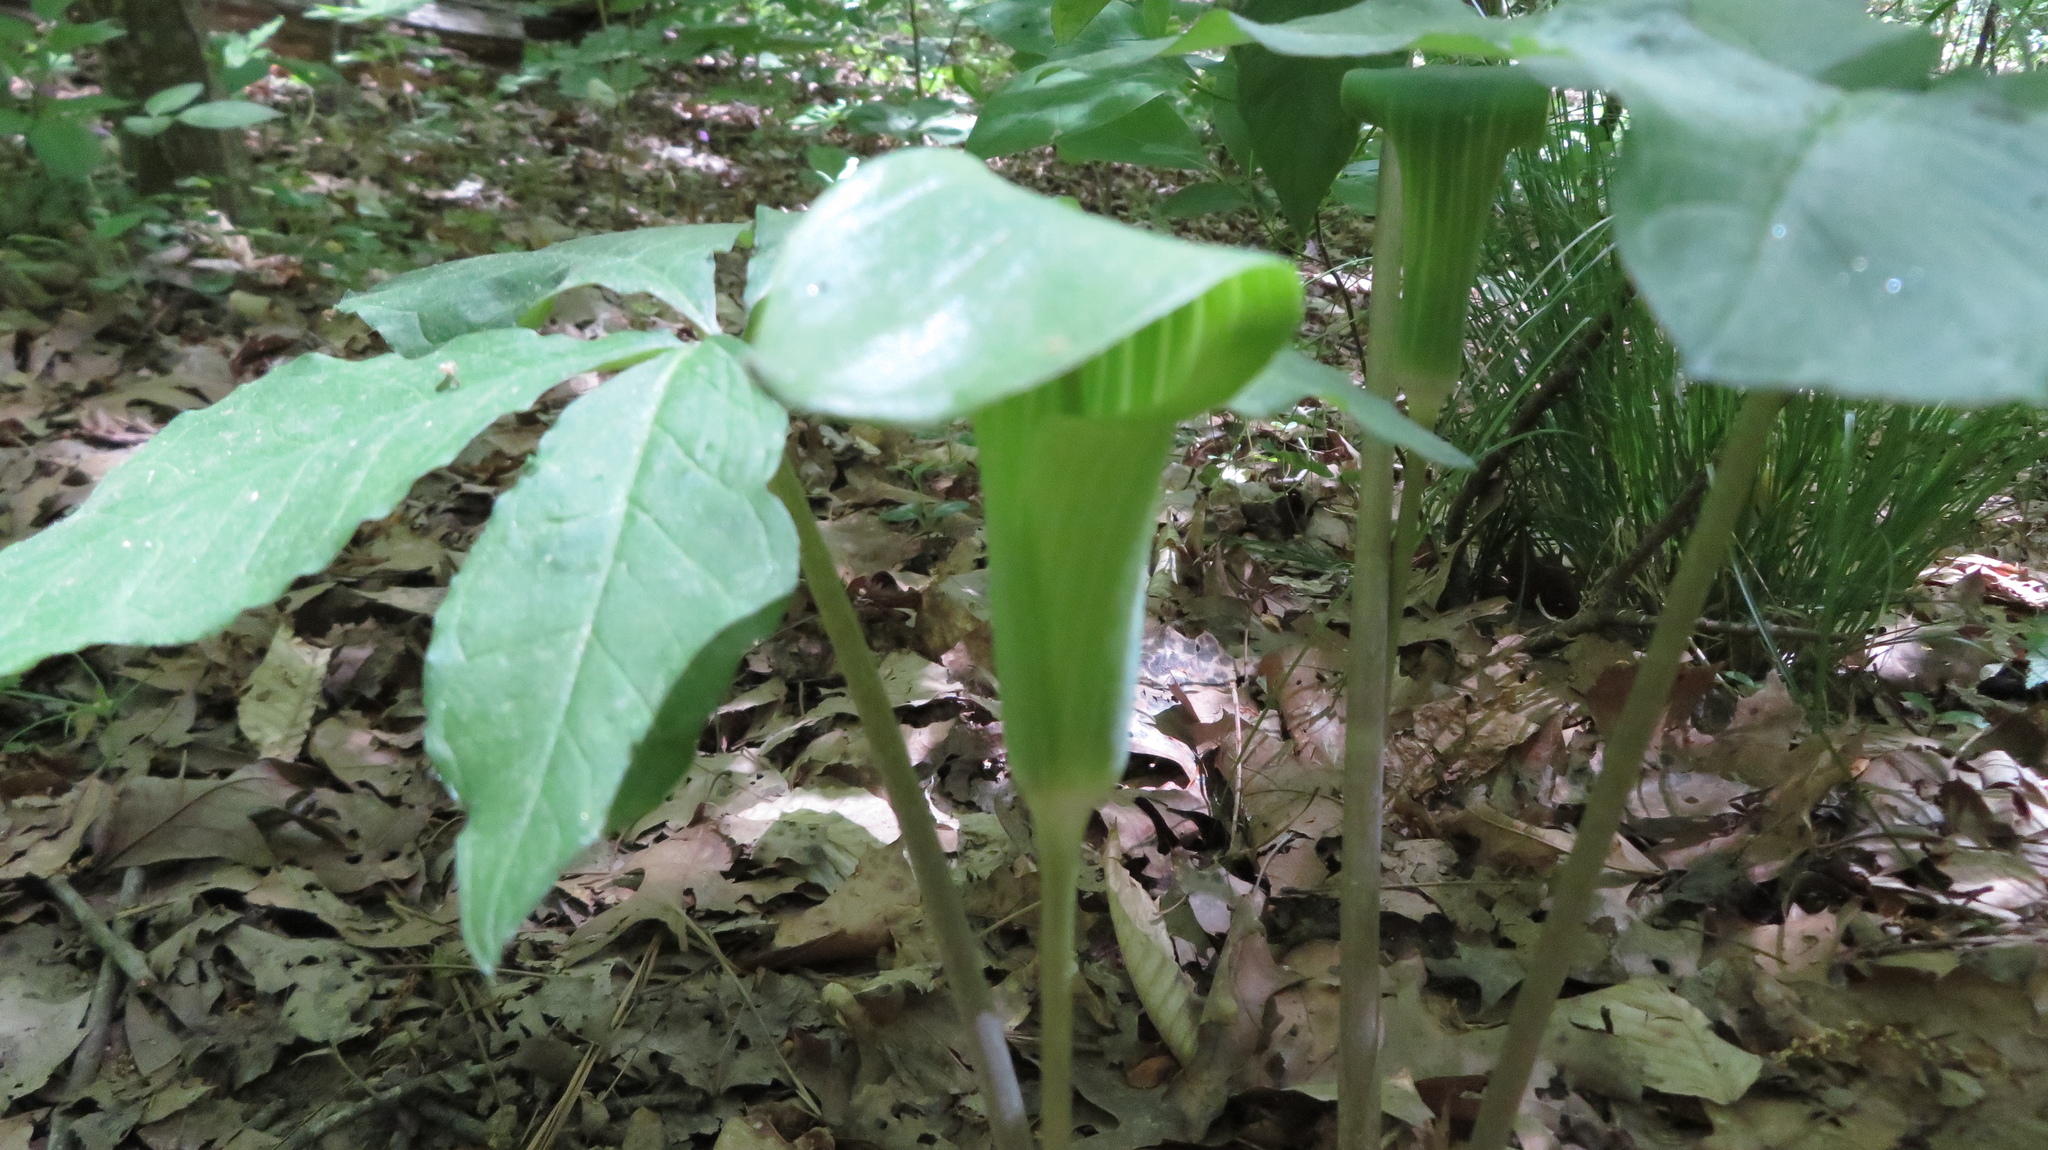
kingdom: Plantae
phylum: Tracheophyta
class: Liliopsida
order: Alismatales
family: Araceae
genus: Arisaema
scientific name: Arisaema quinatum
